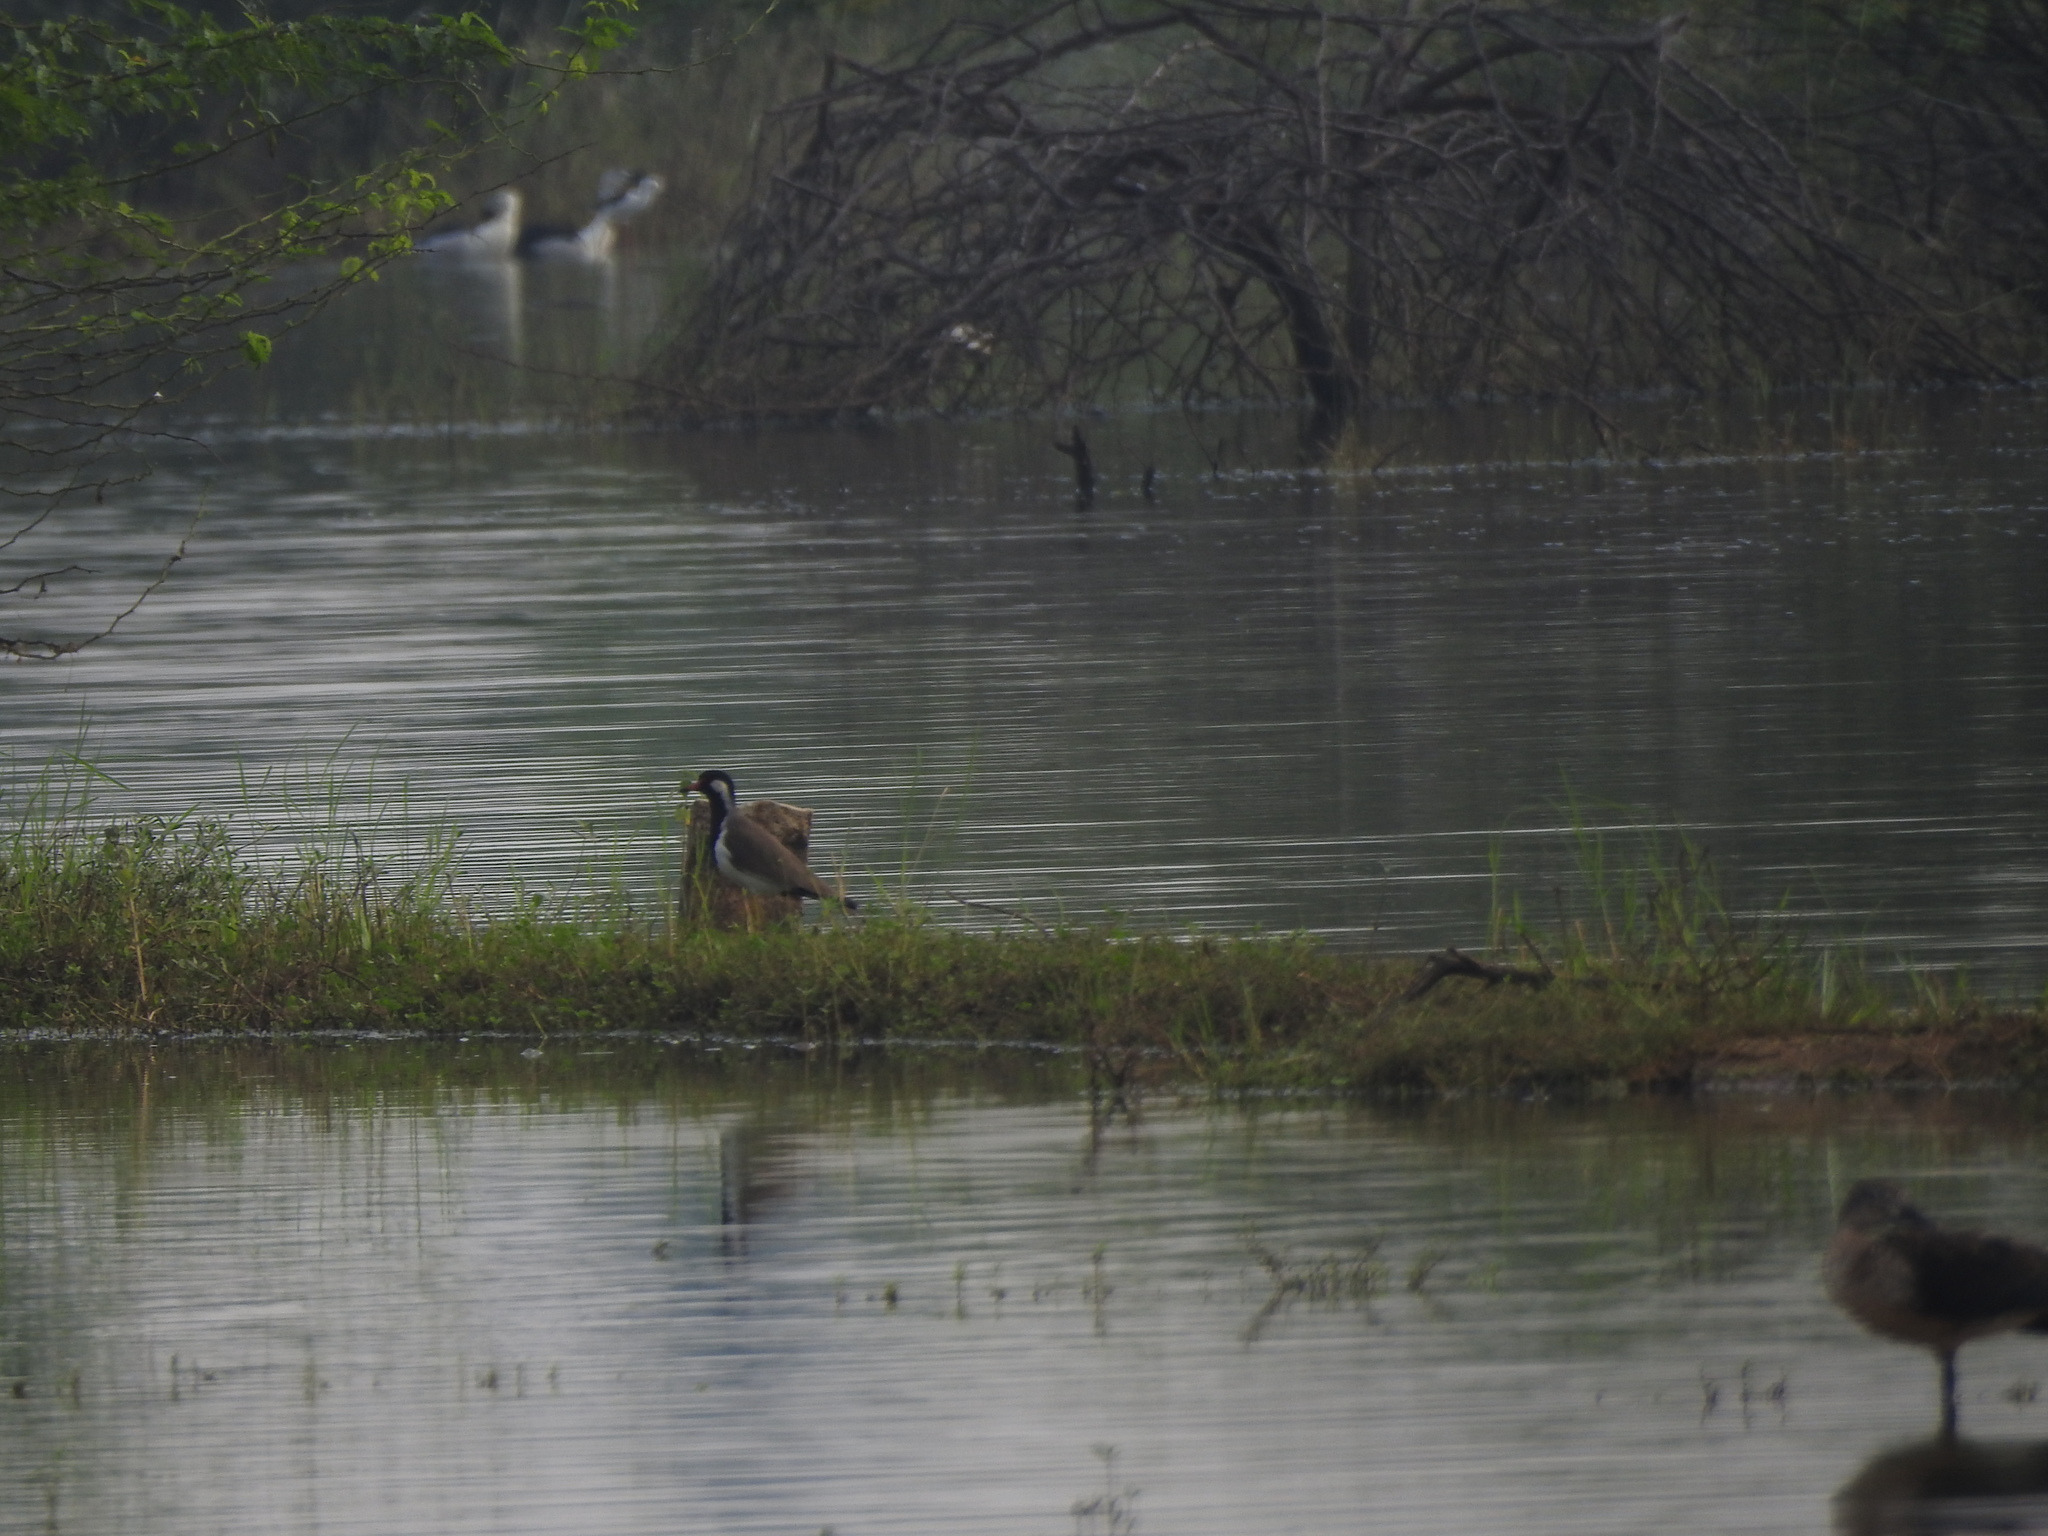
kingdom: Animalia
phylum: Chordata
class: Aves
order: Charadriiformes
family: Charadriidae
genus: Vanellus
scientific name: Vanellus indicus
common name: Red-wattled lapwing
